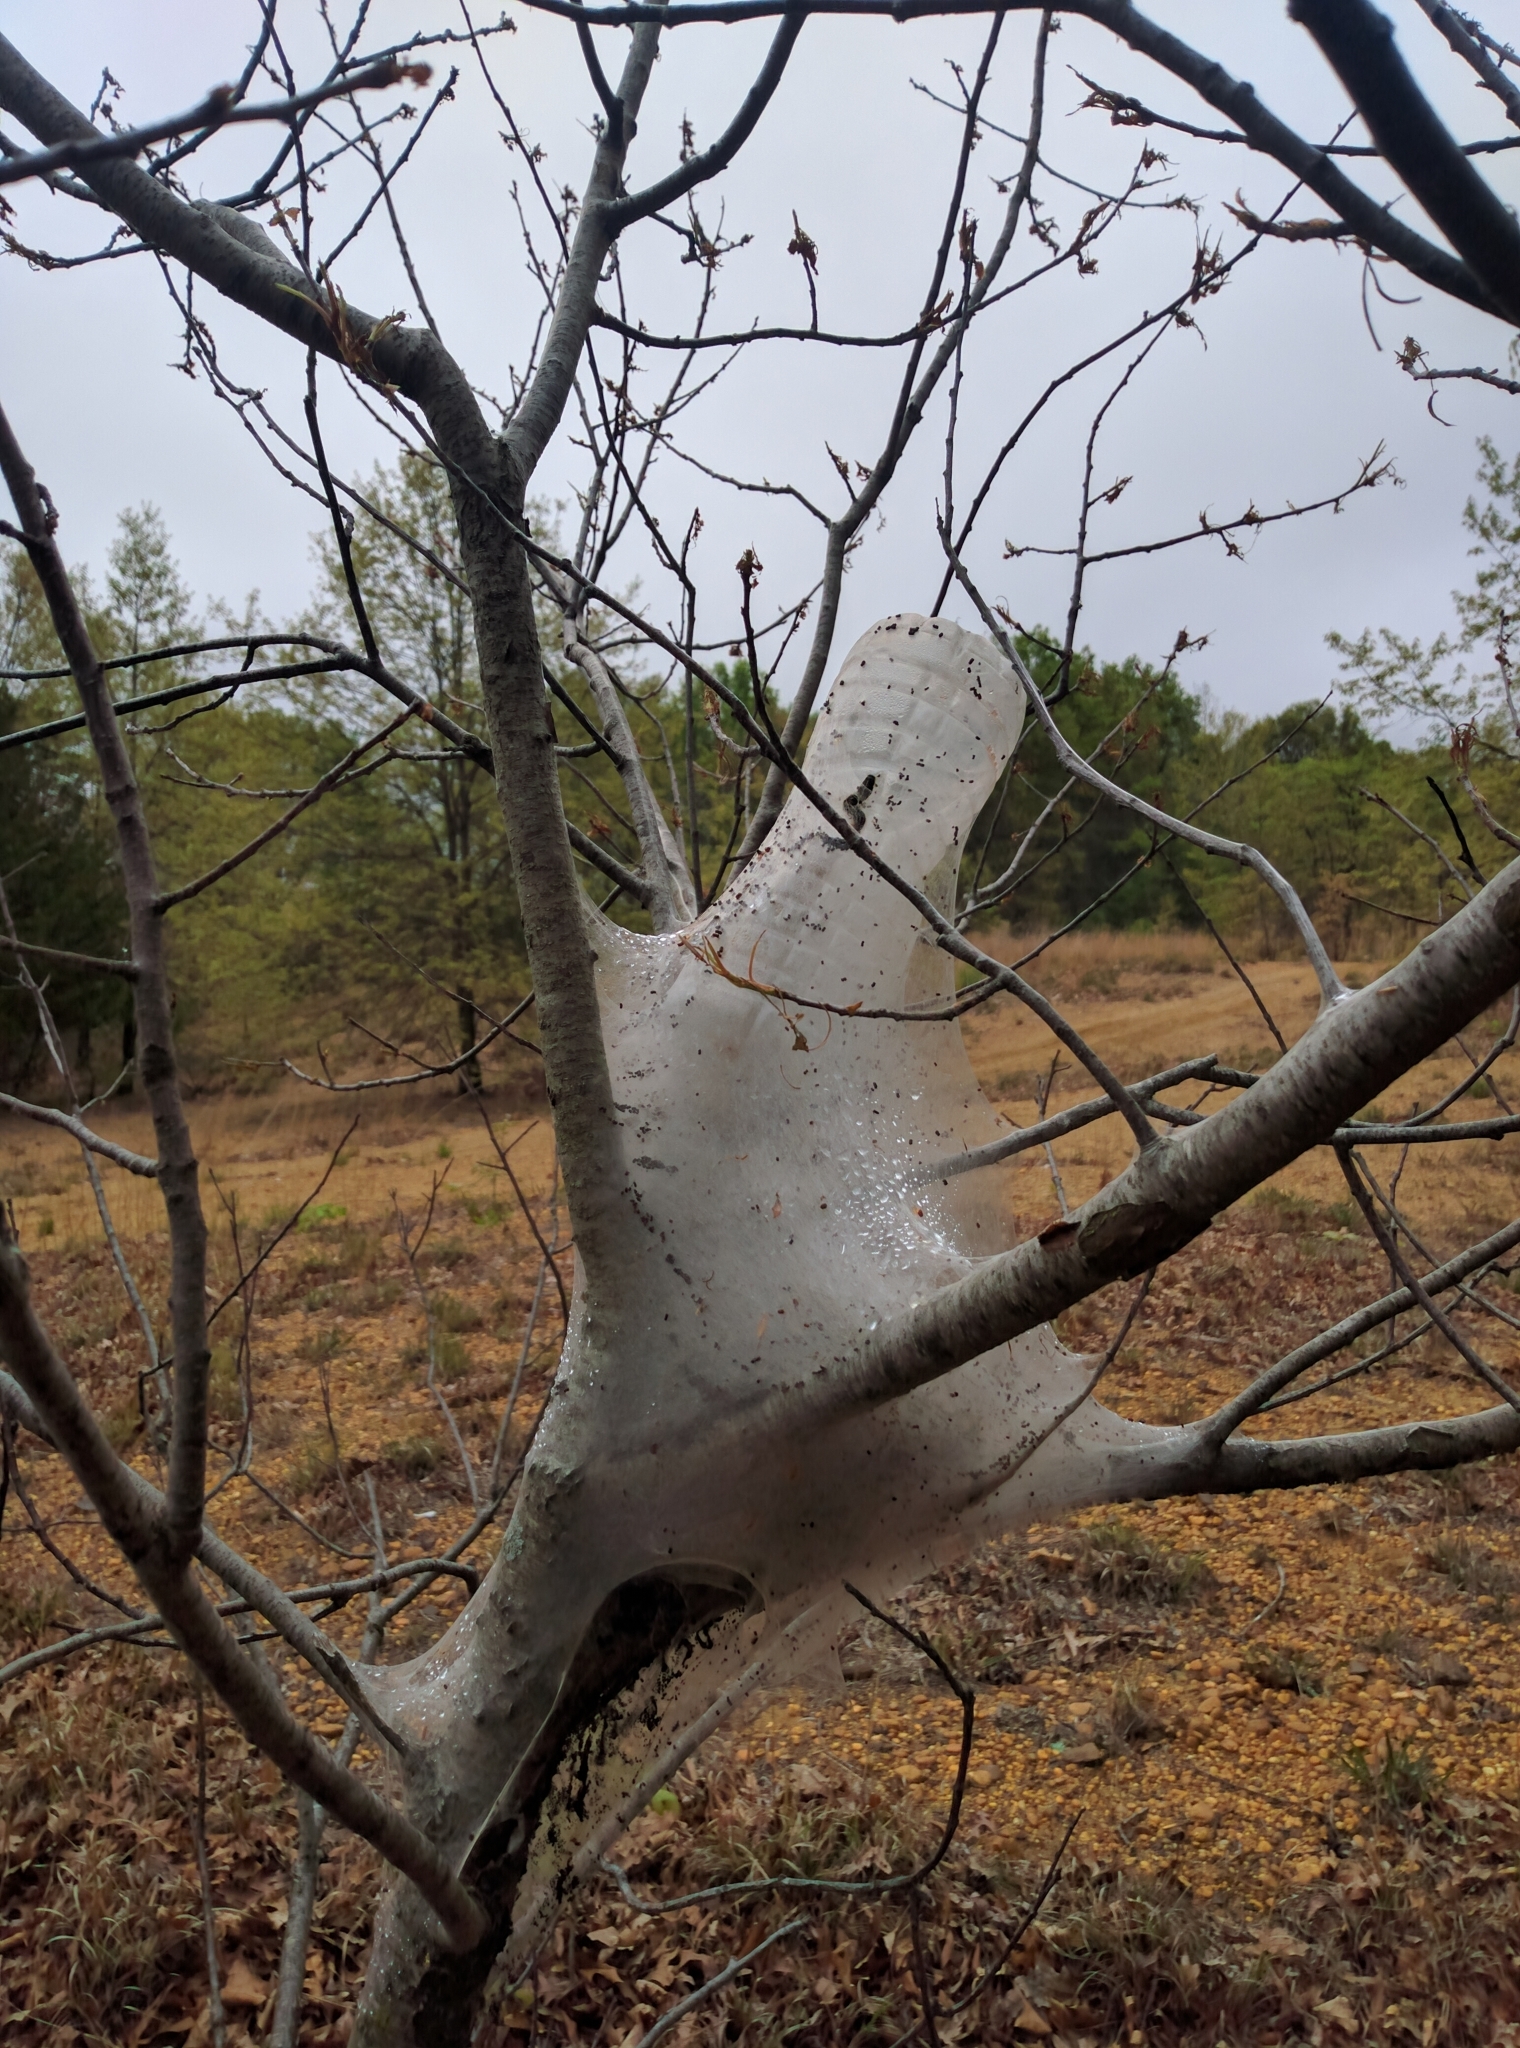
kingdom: Animalia
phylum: Arthropoda
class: Insecta
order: Lepidoptera
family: Lasiocampidae
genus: Malacosoma
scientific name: Malacosoma americana
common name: Eastern tent caterpillar moth
